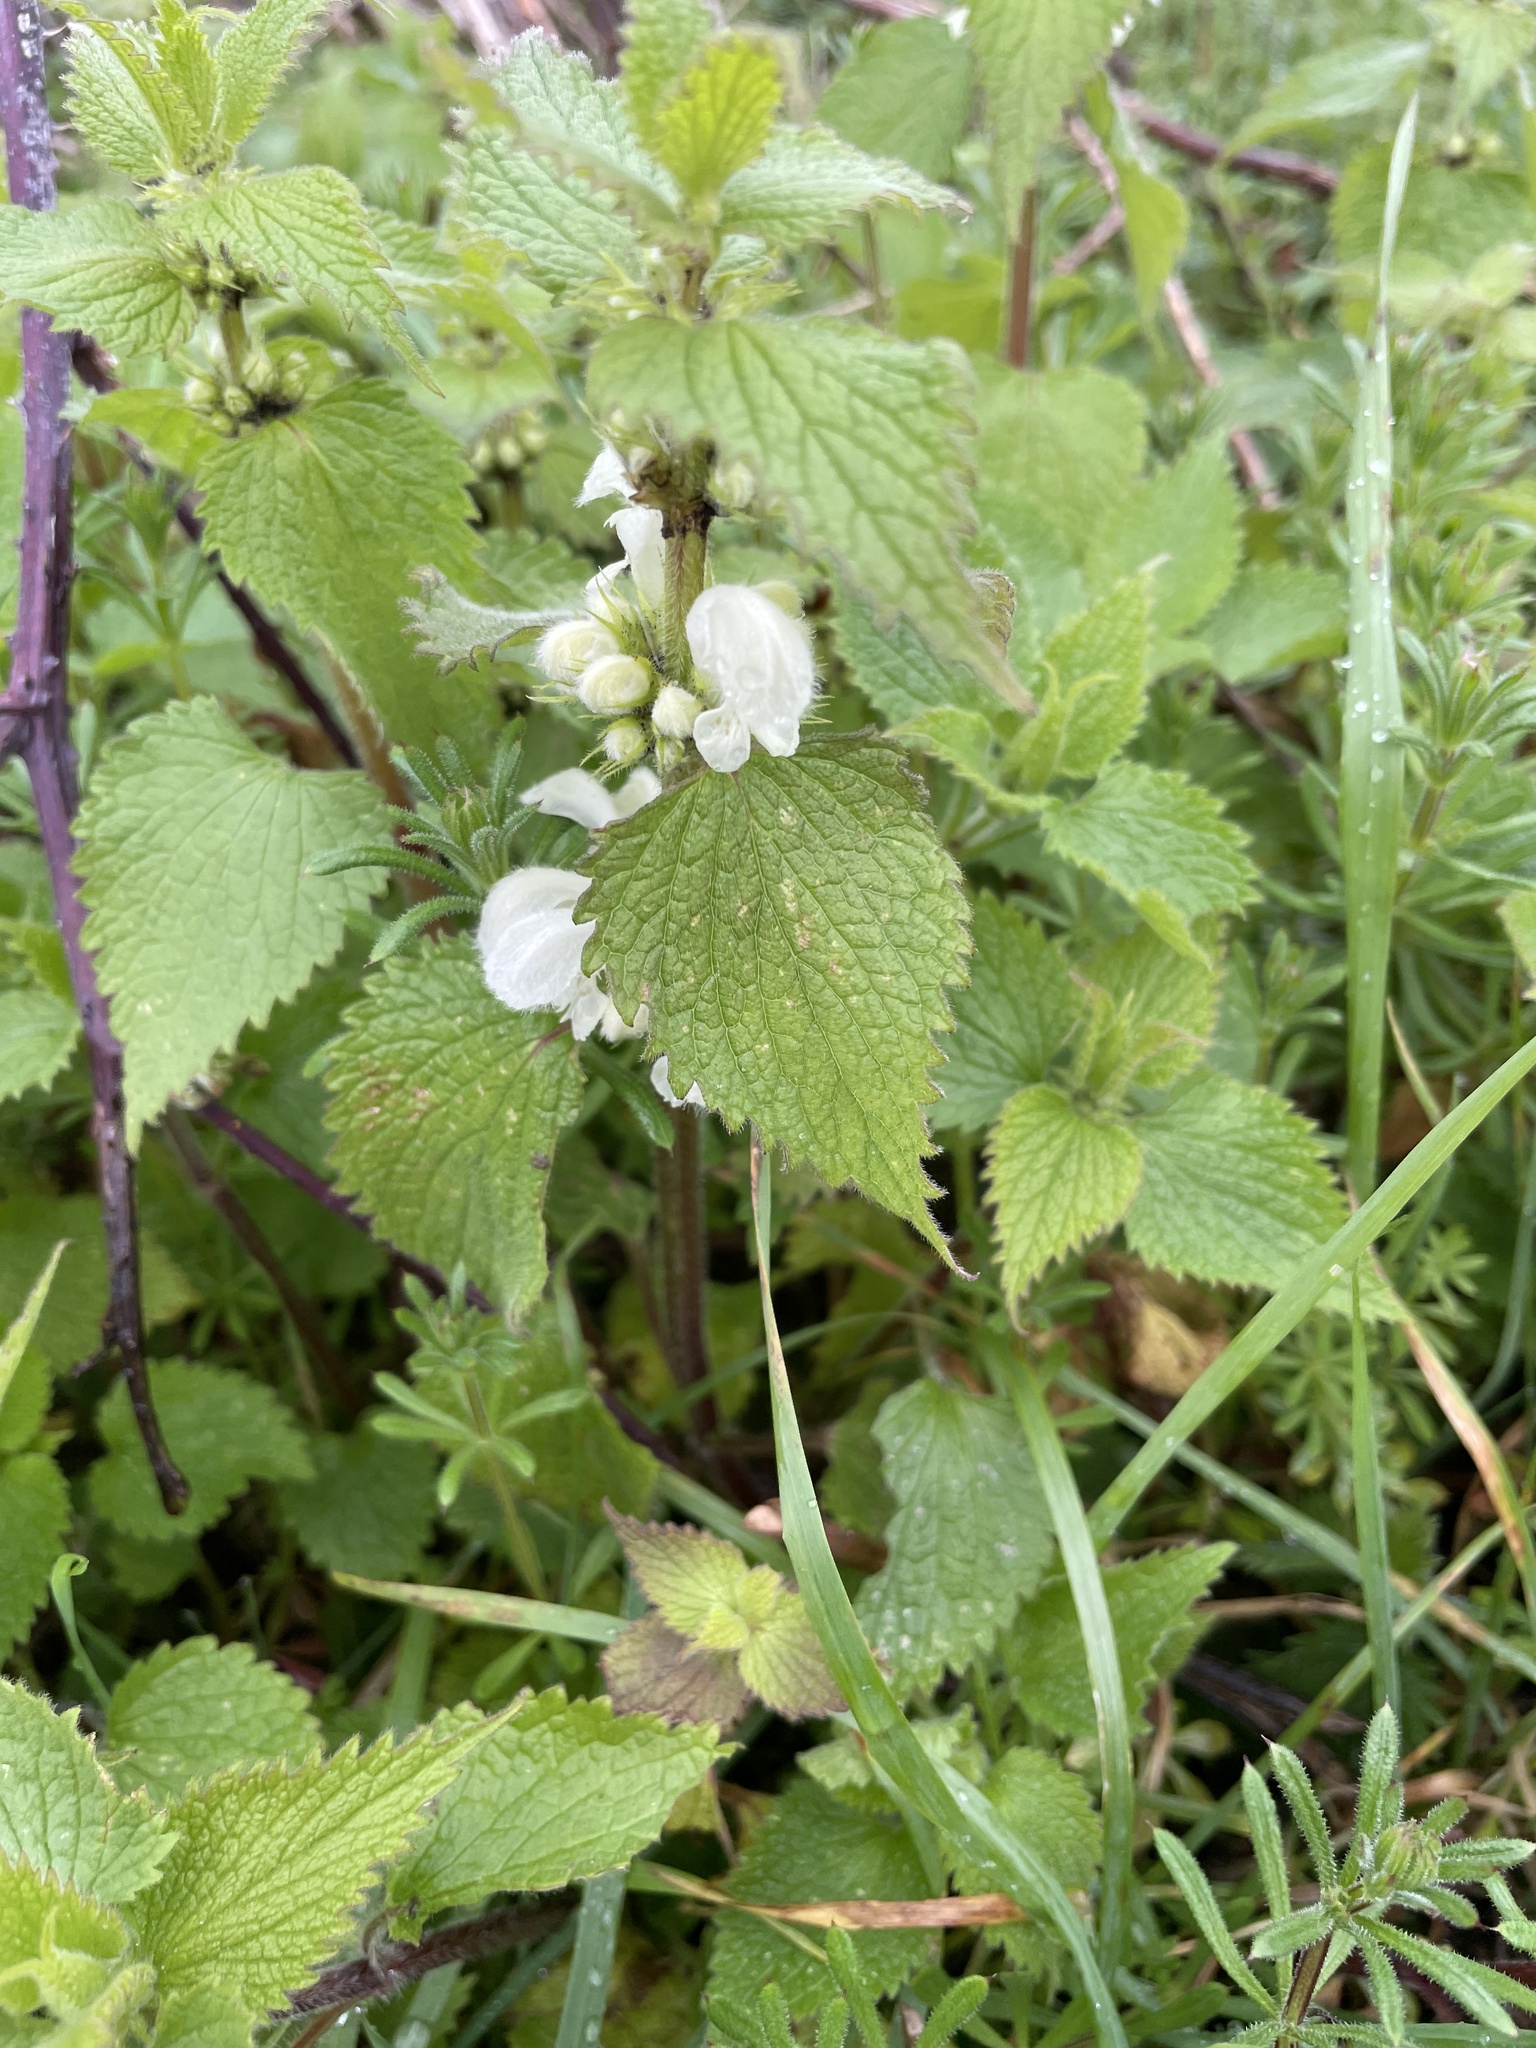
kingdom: Plantae
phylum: Tracheophyta
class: Magnoliopsida
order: Lamiales
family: Lamiaceae
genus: Lamium
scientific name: Lamium album
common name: White dead-nettle
